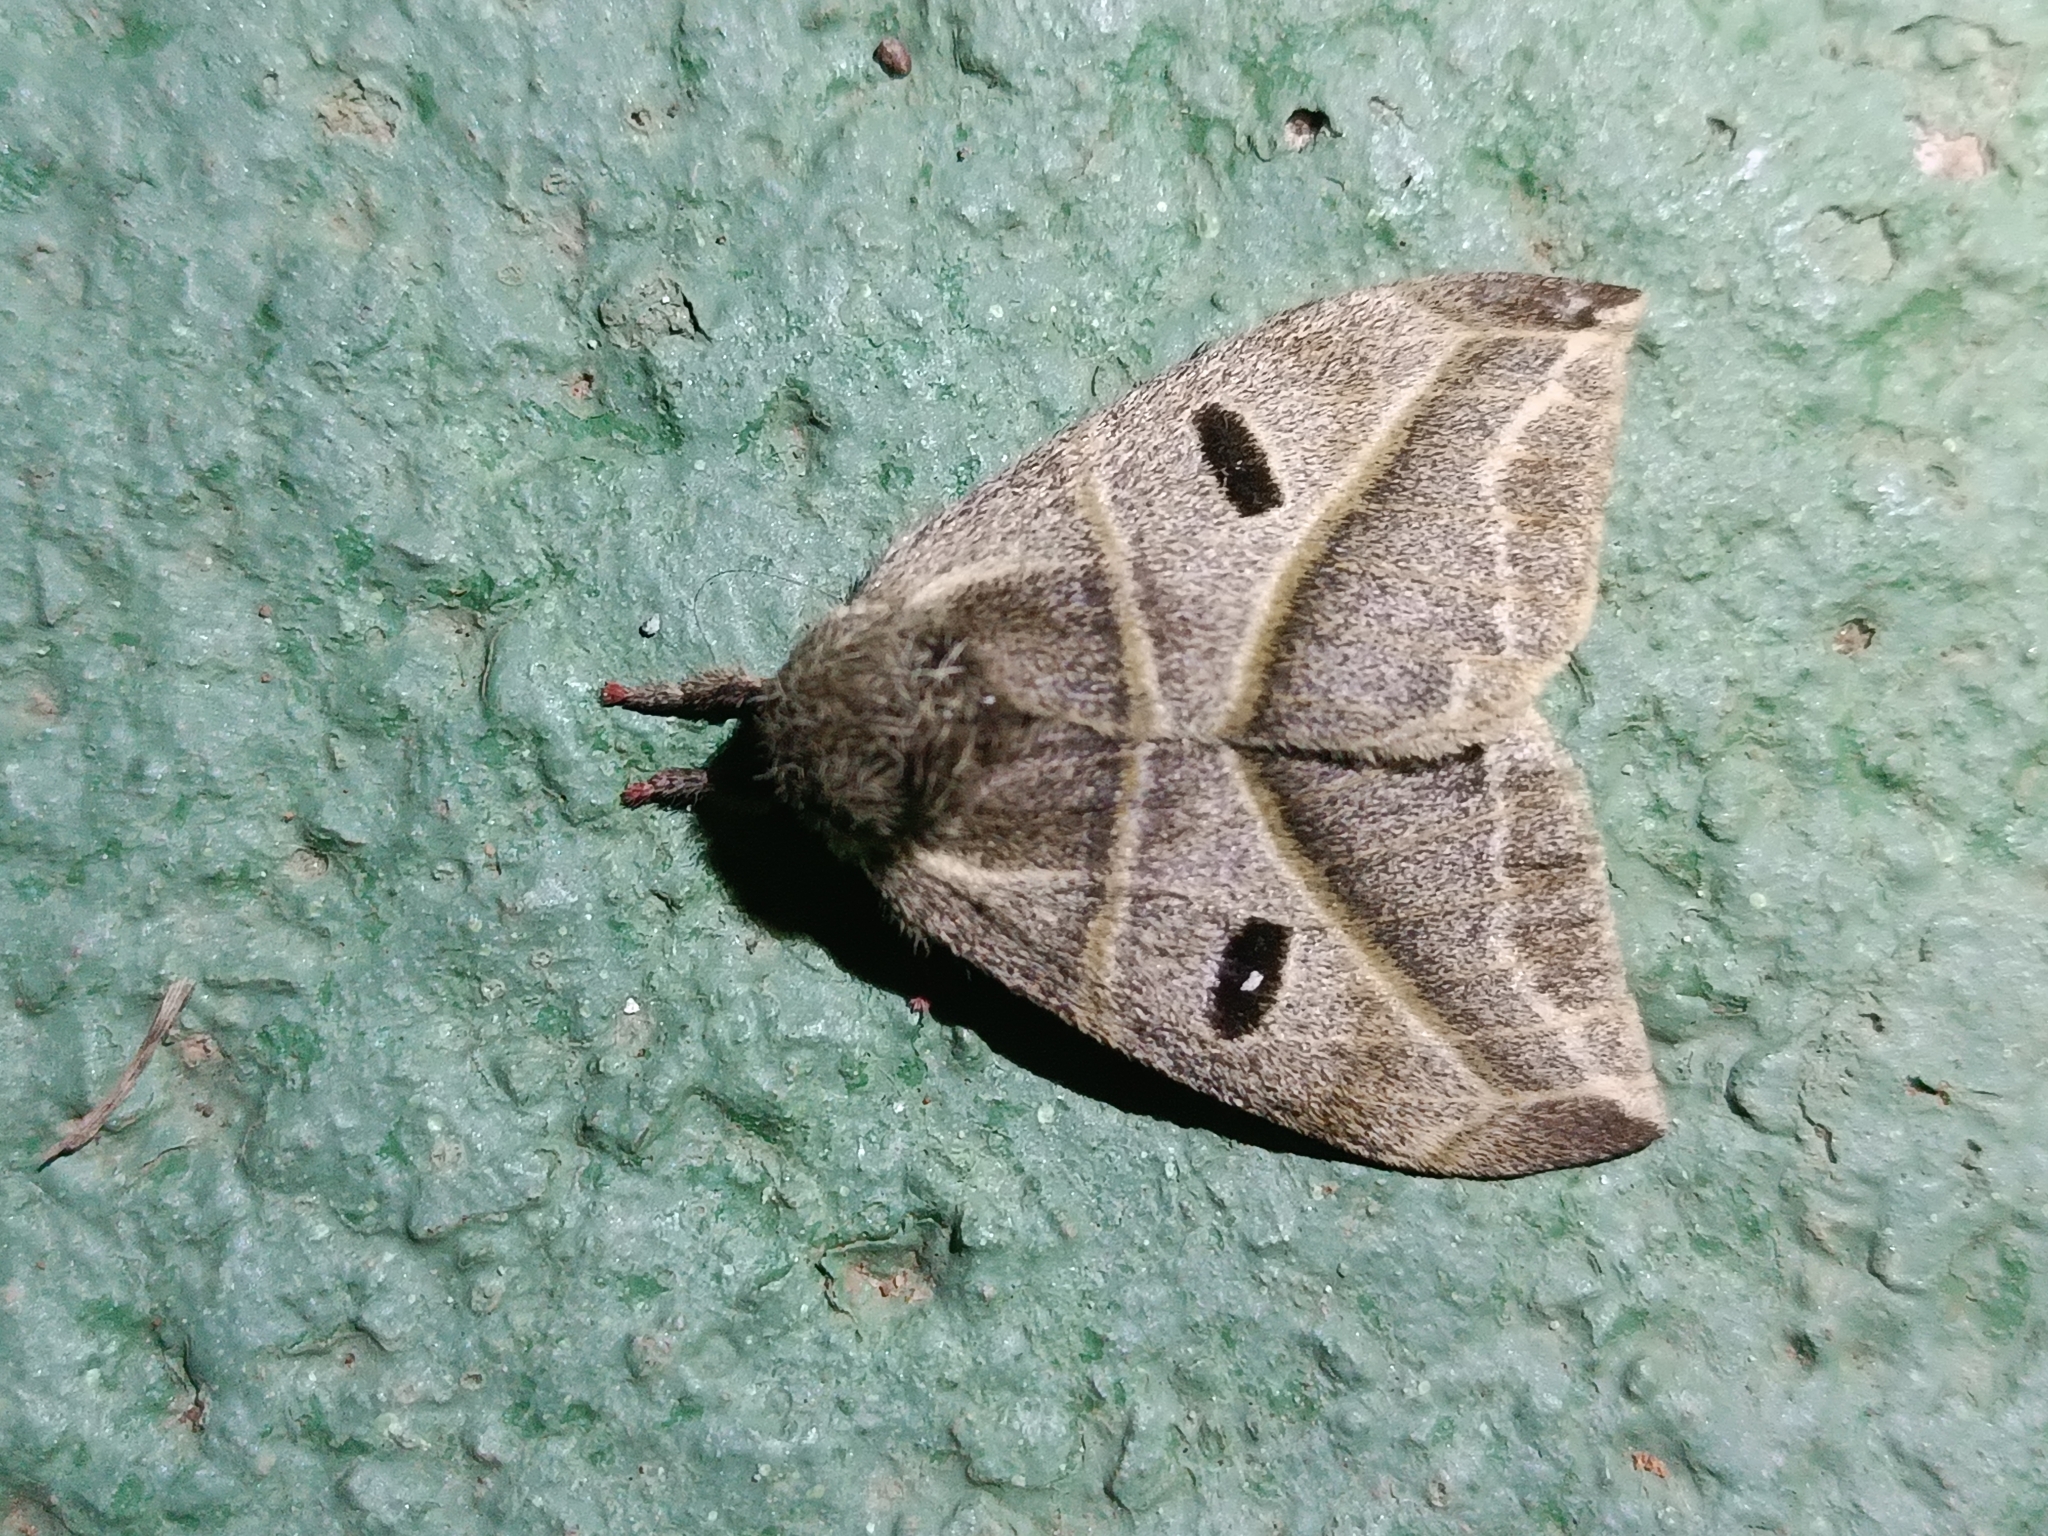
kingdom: Animalia
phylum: Arthropoda
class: Insecta
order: Lepidoptera
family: Saturniidae
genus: Austrolippa
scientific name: Austrolippa cruenta
